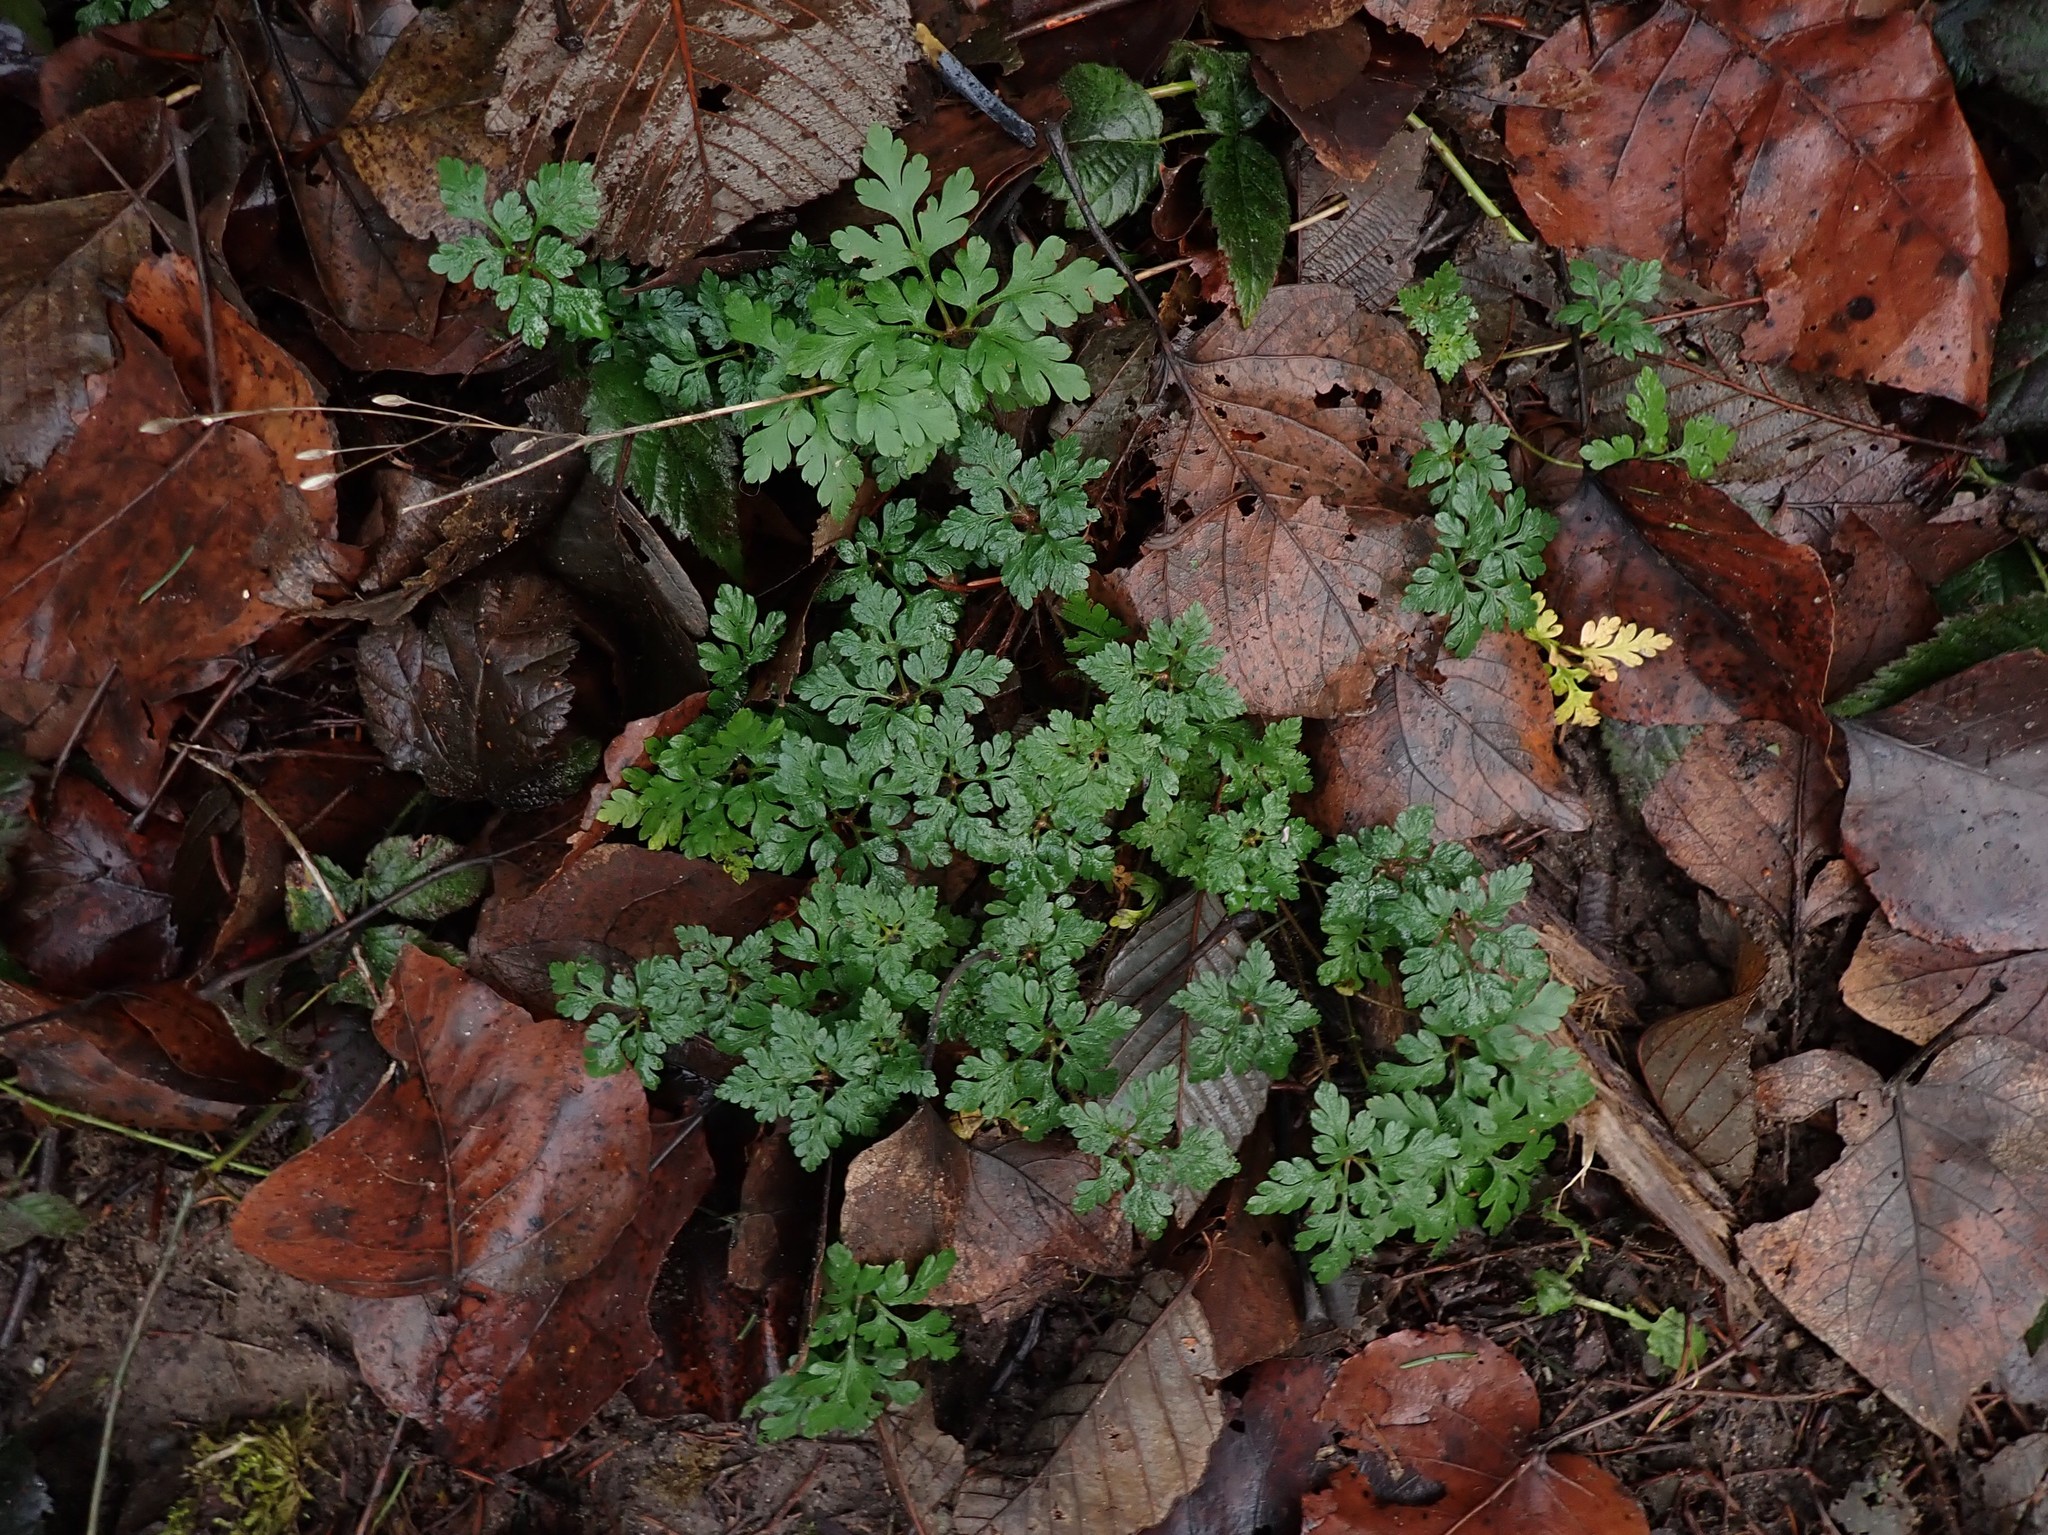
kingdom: Plantae
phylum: Tracheophyta
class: Magnoliopsida
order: Geraniales
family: Geraniaceae
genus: Geranium
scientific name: Geranium robertianum
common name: Herb-robert
